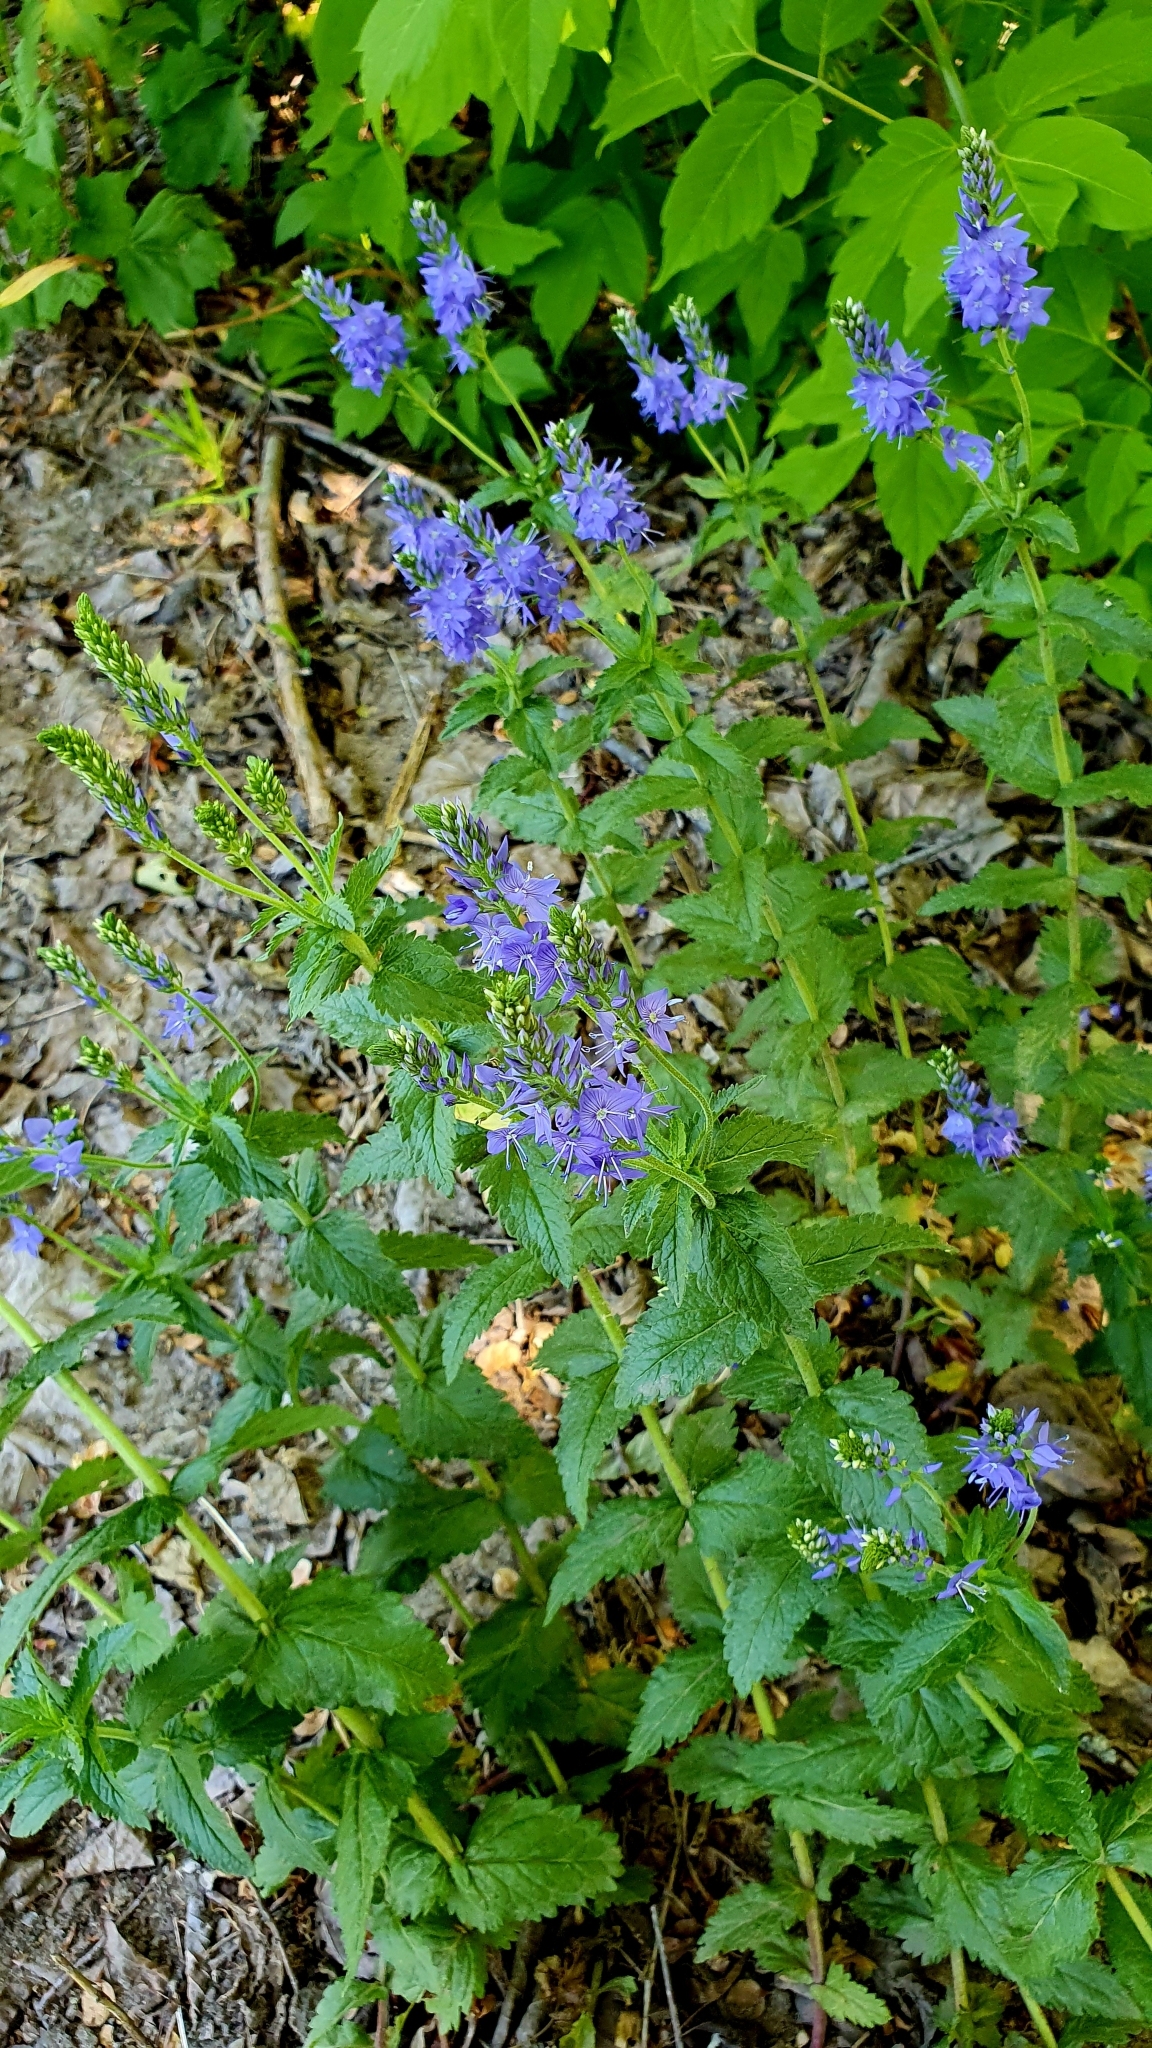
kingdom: Plantae
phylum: Tracheophyta
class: Magnoliopsida
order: Lamiales
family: Plantaginaceae
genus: Veronica
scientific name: Veronica teucrium
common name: Large speedwell
